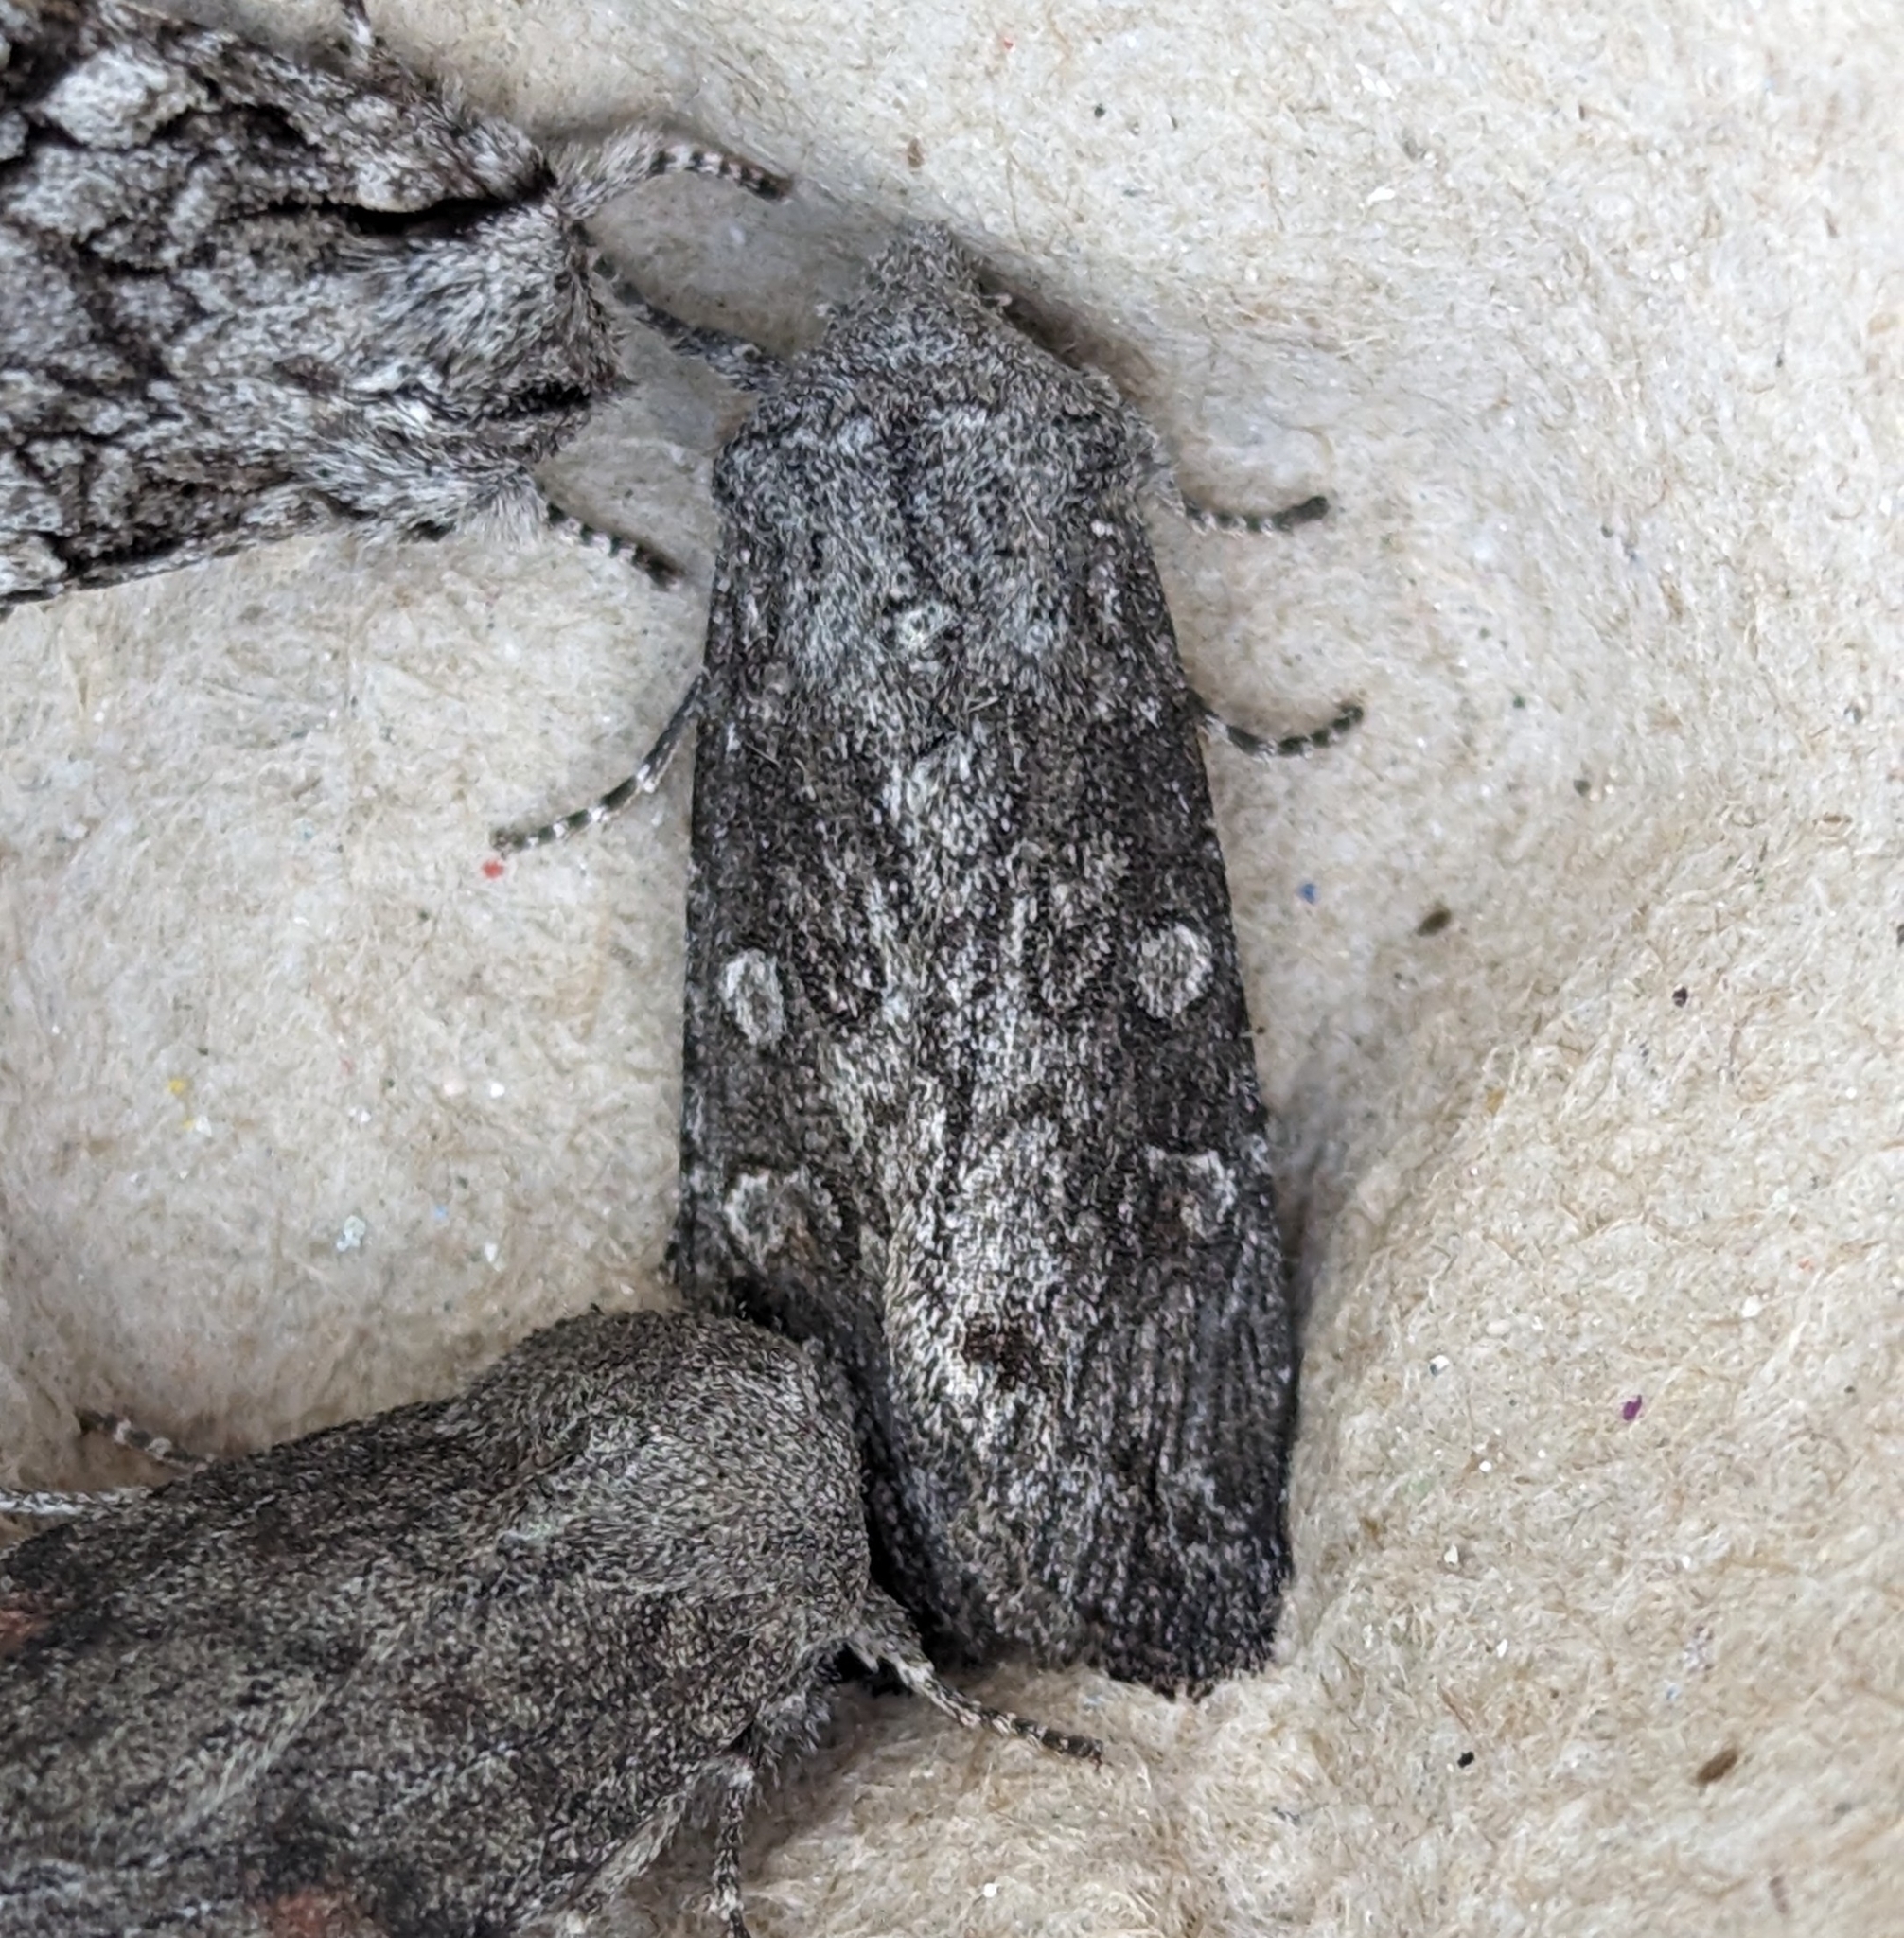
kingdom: Animalia
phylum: Arthropoda
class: Insecta
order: Lepidoptera
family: Noctuidae
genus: Egira
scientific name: Egira curialis
